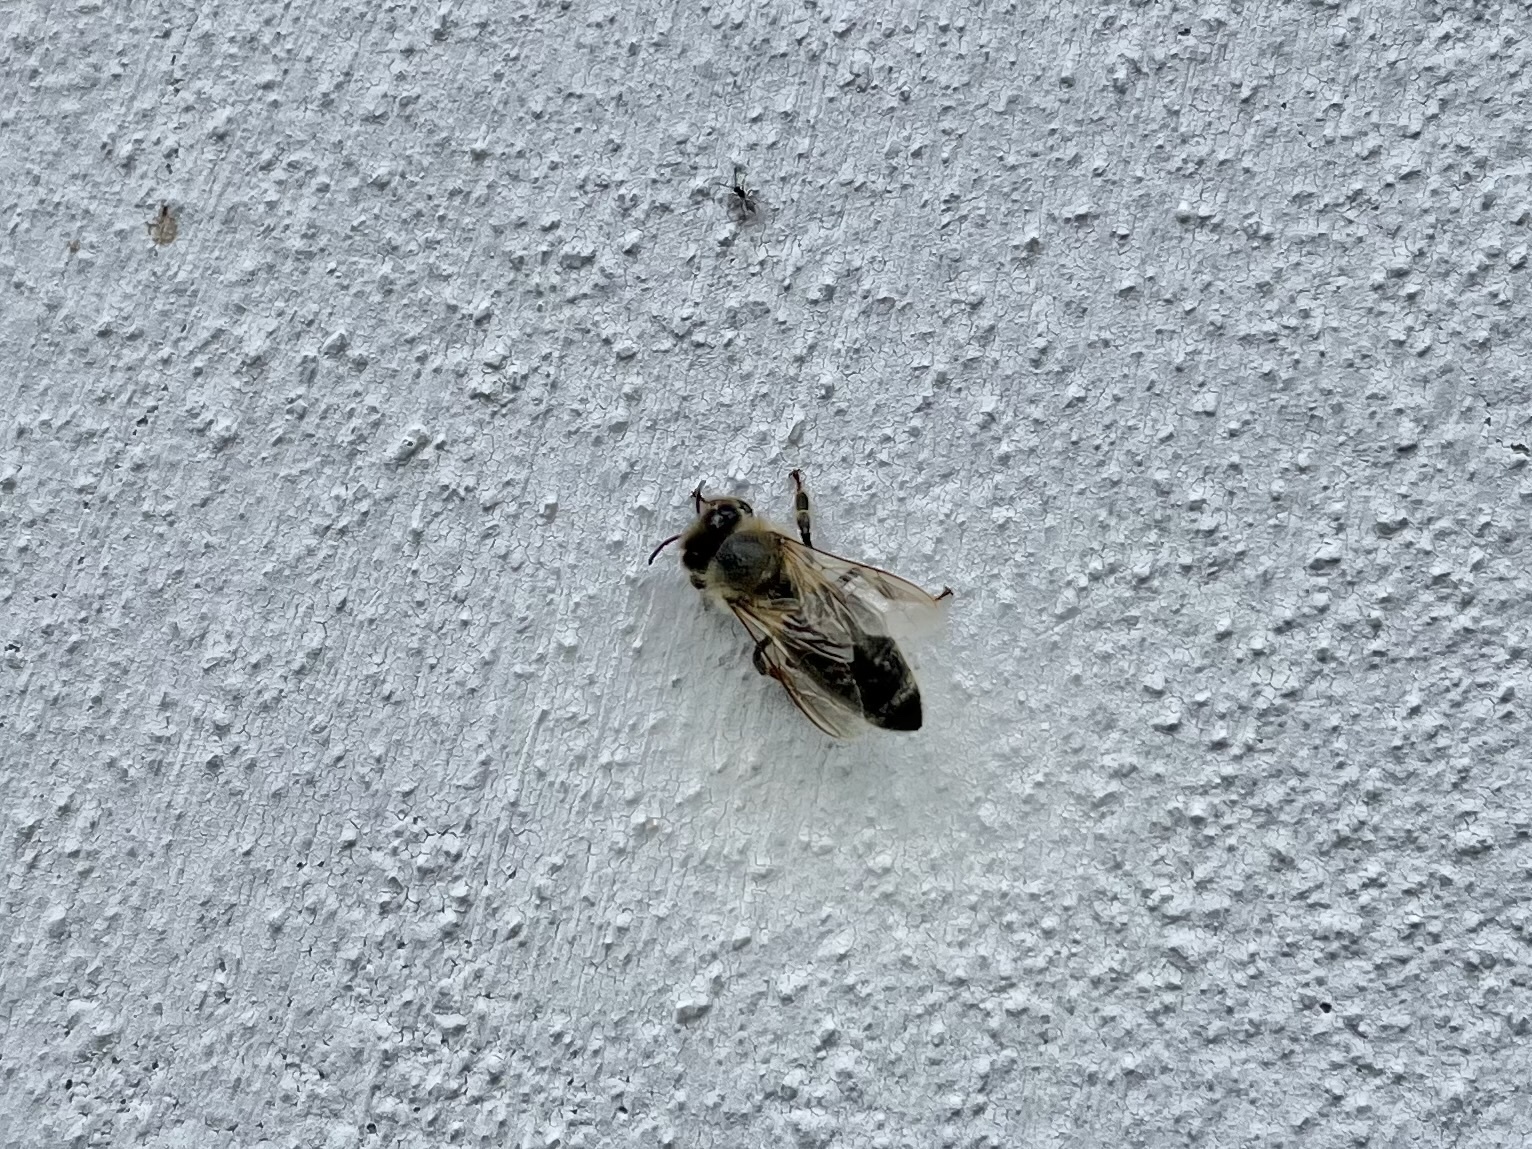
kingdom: Animalia
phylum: Arthropoda
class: Insecta
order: Hymenoptera
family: Apidae
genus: Apis
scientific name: Apis mellifera
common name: Honey bee
